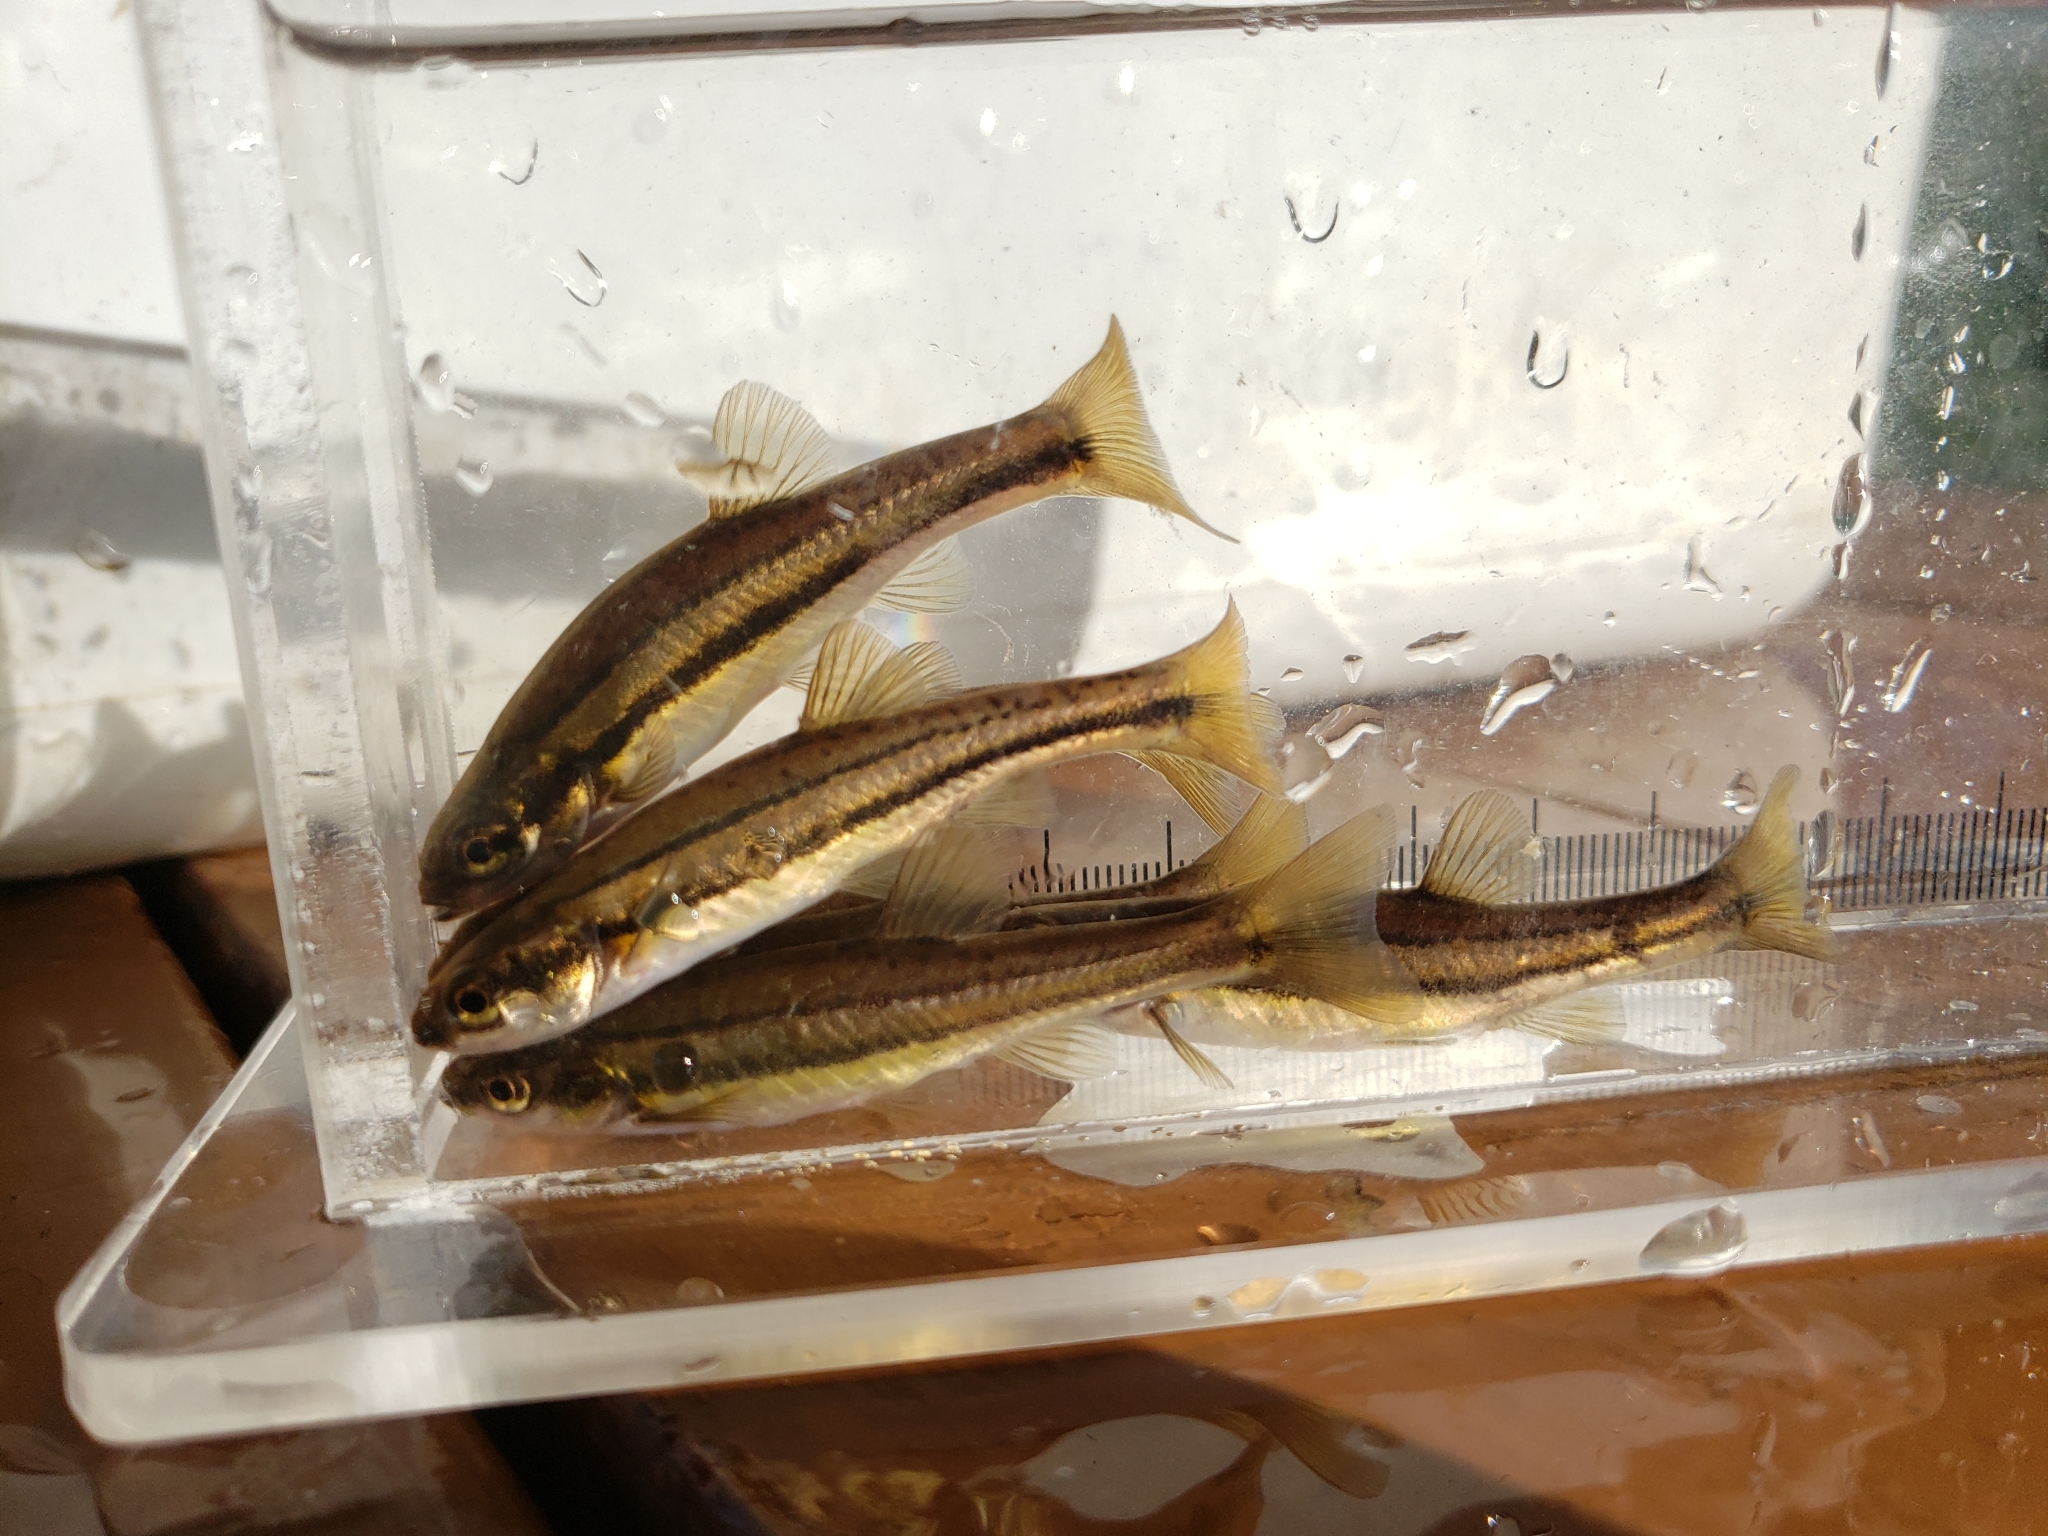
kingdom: Animalia
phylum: Chordata
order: Cypriniformes
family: Cyprinidae
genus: Chrosomus
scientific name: Chrosomus eos
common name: Northern redbelly dace
